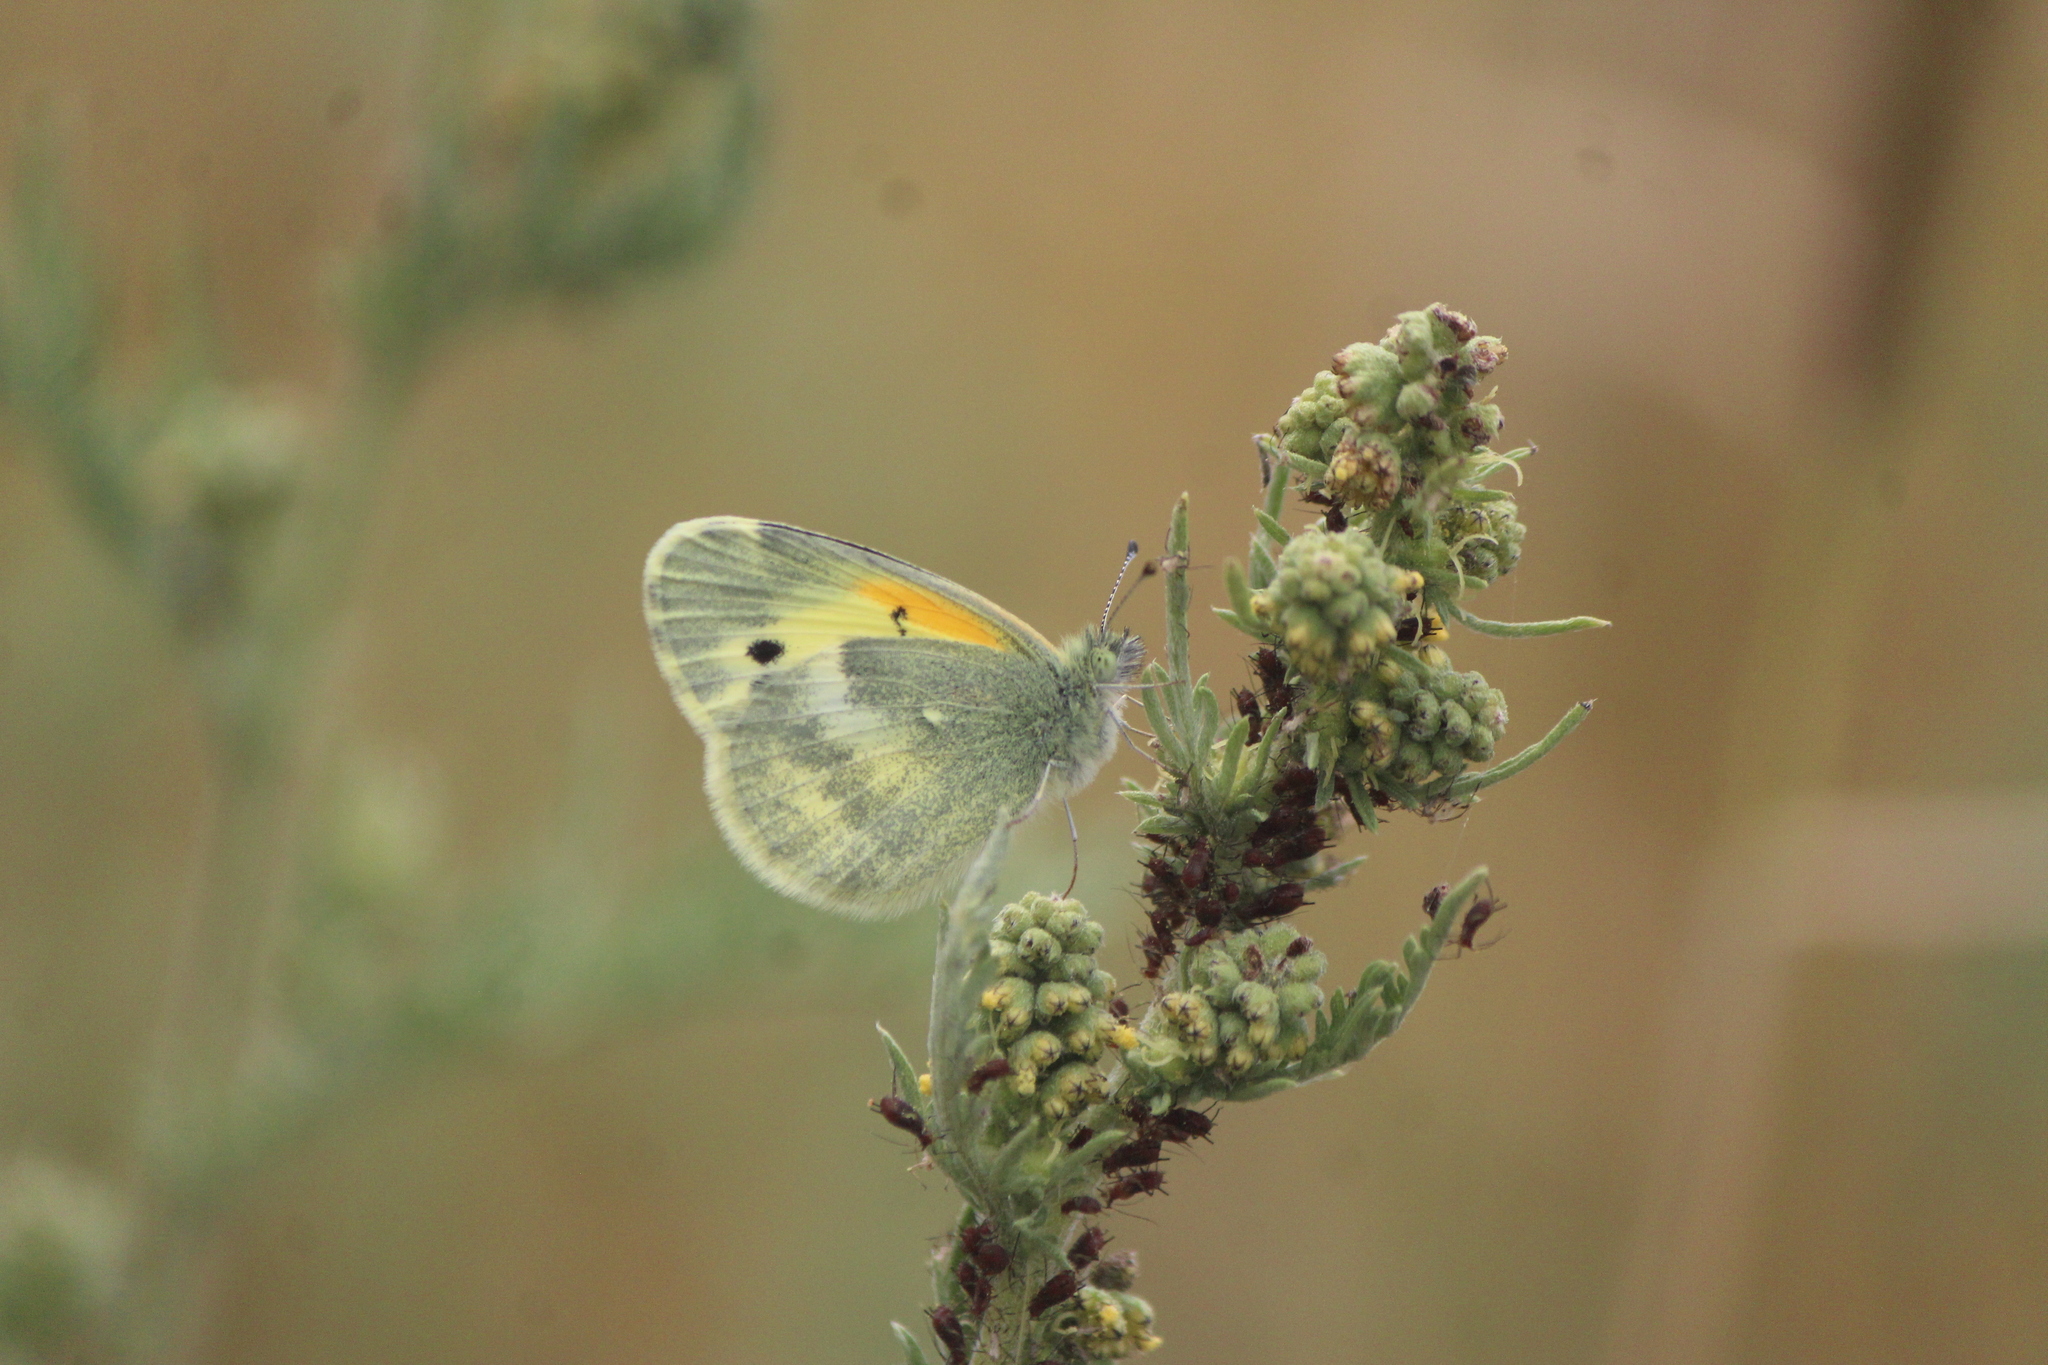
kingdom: Animalia
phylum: Arthropoda
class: Insecta
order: Lepidoptera
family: Pieridae
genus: Nathalis
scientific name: Nathalis iole
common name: Dainty sulphur
